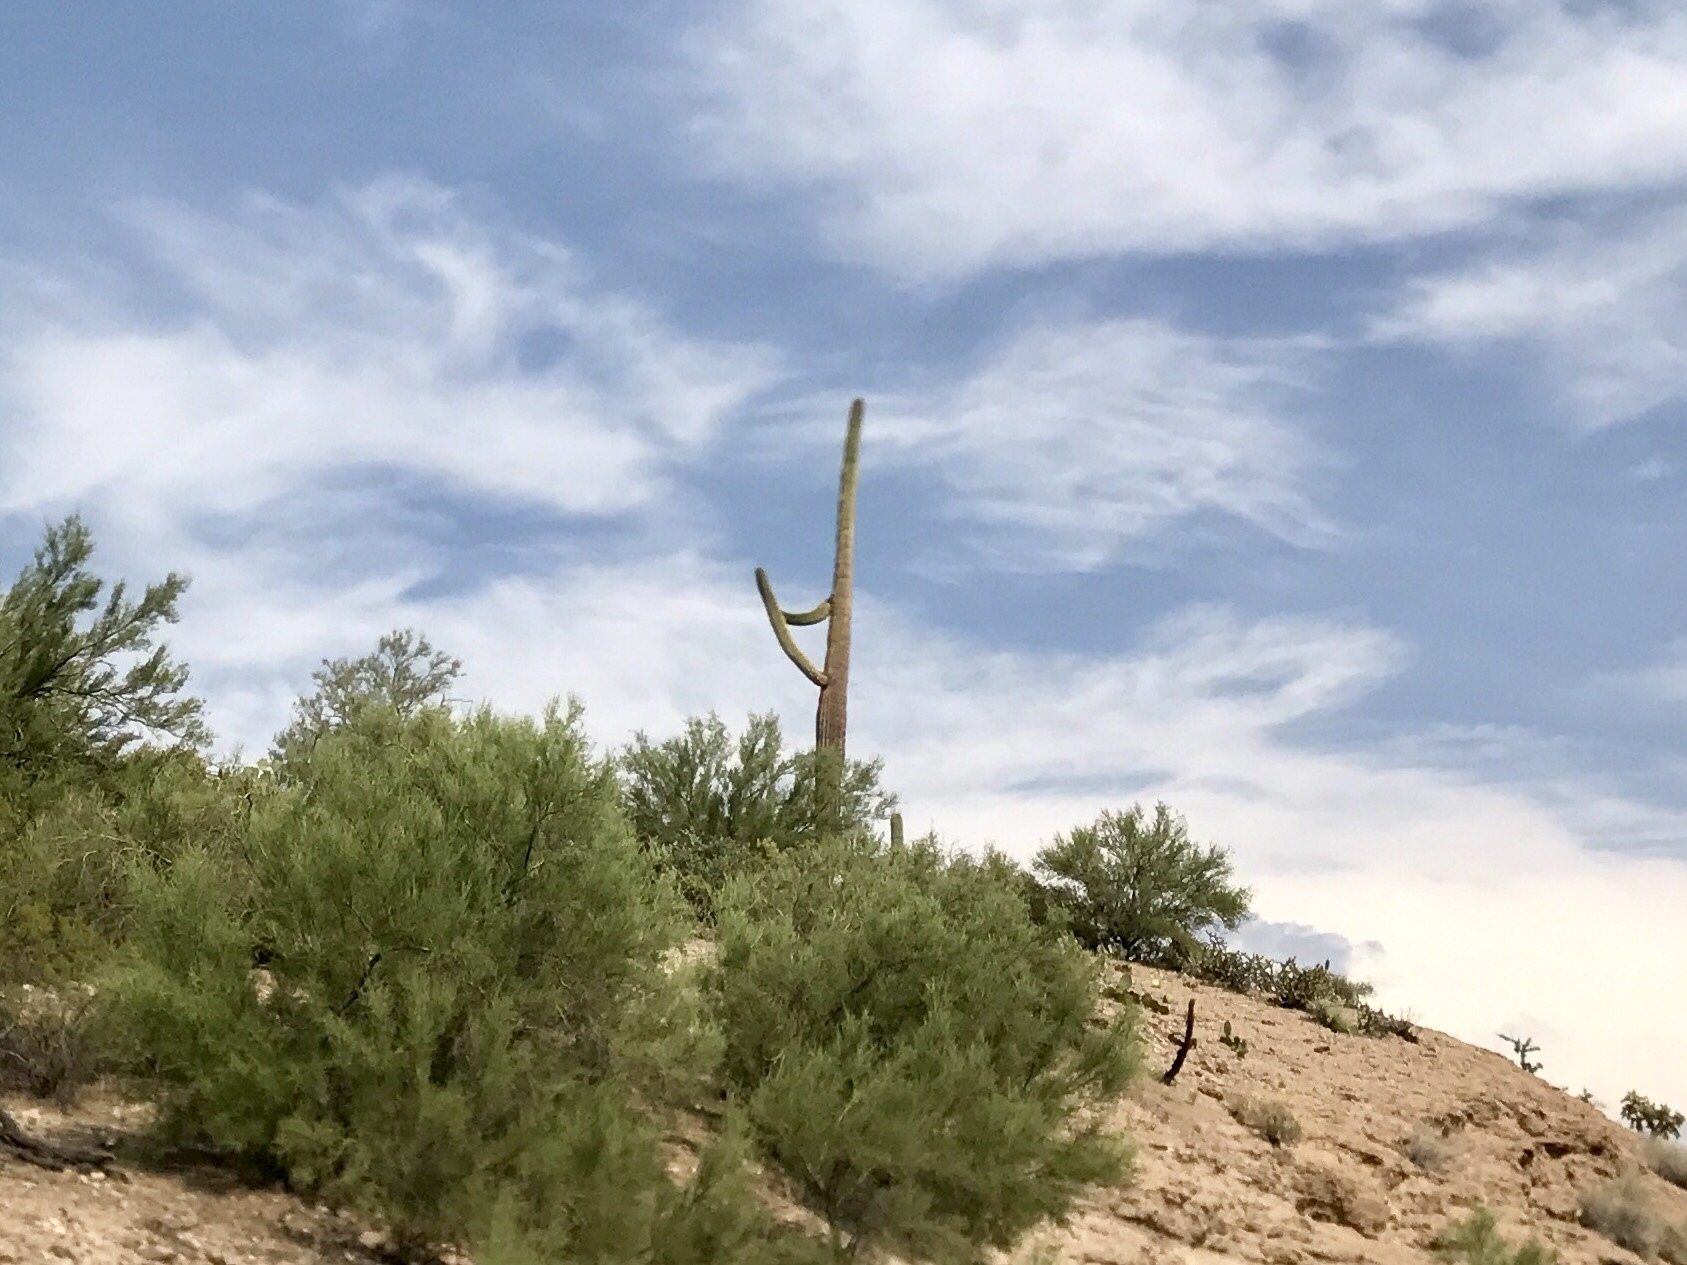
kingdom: Plantae
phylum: Tracheophyta
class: Magnoliopsida
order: Caryophyllales
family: Cactaceae
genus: Carnegiea
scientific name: Carnegiea gigantea
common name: Saguaro
